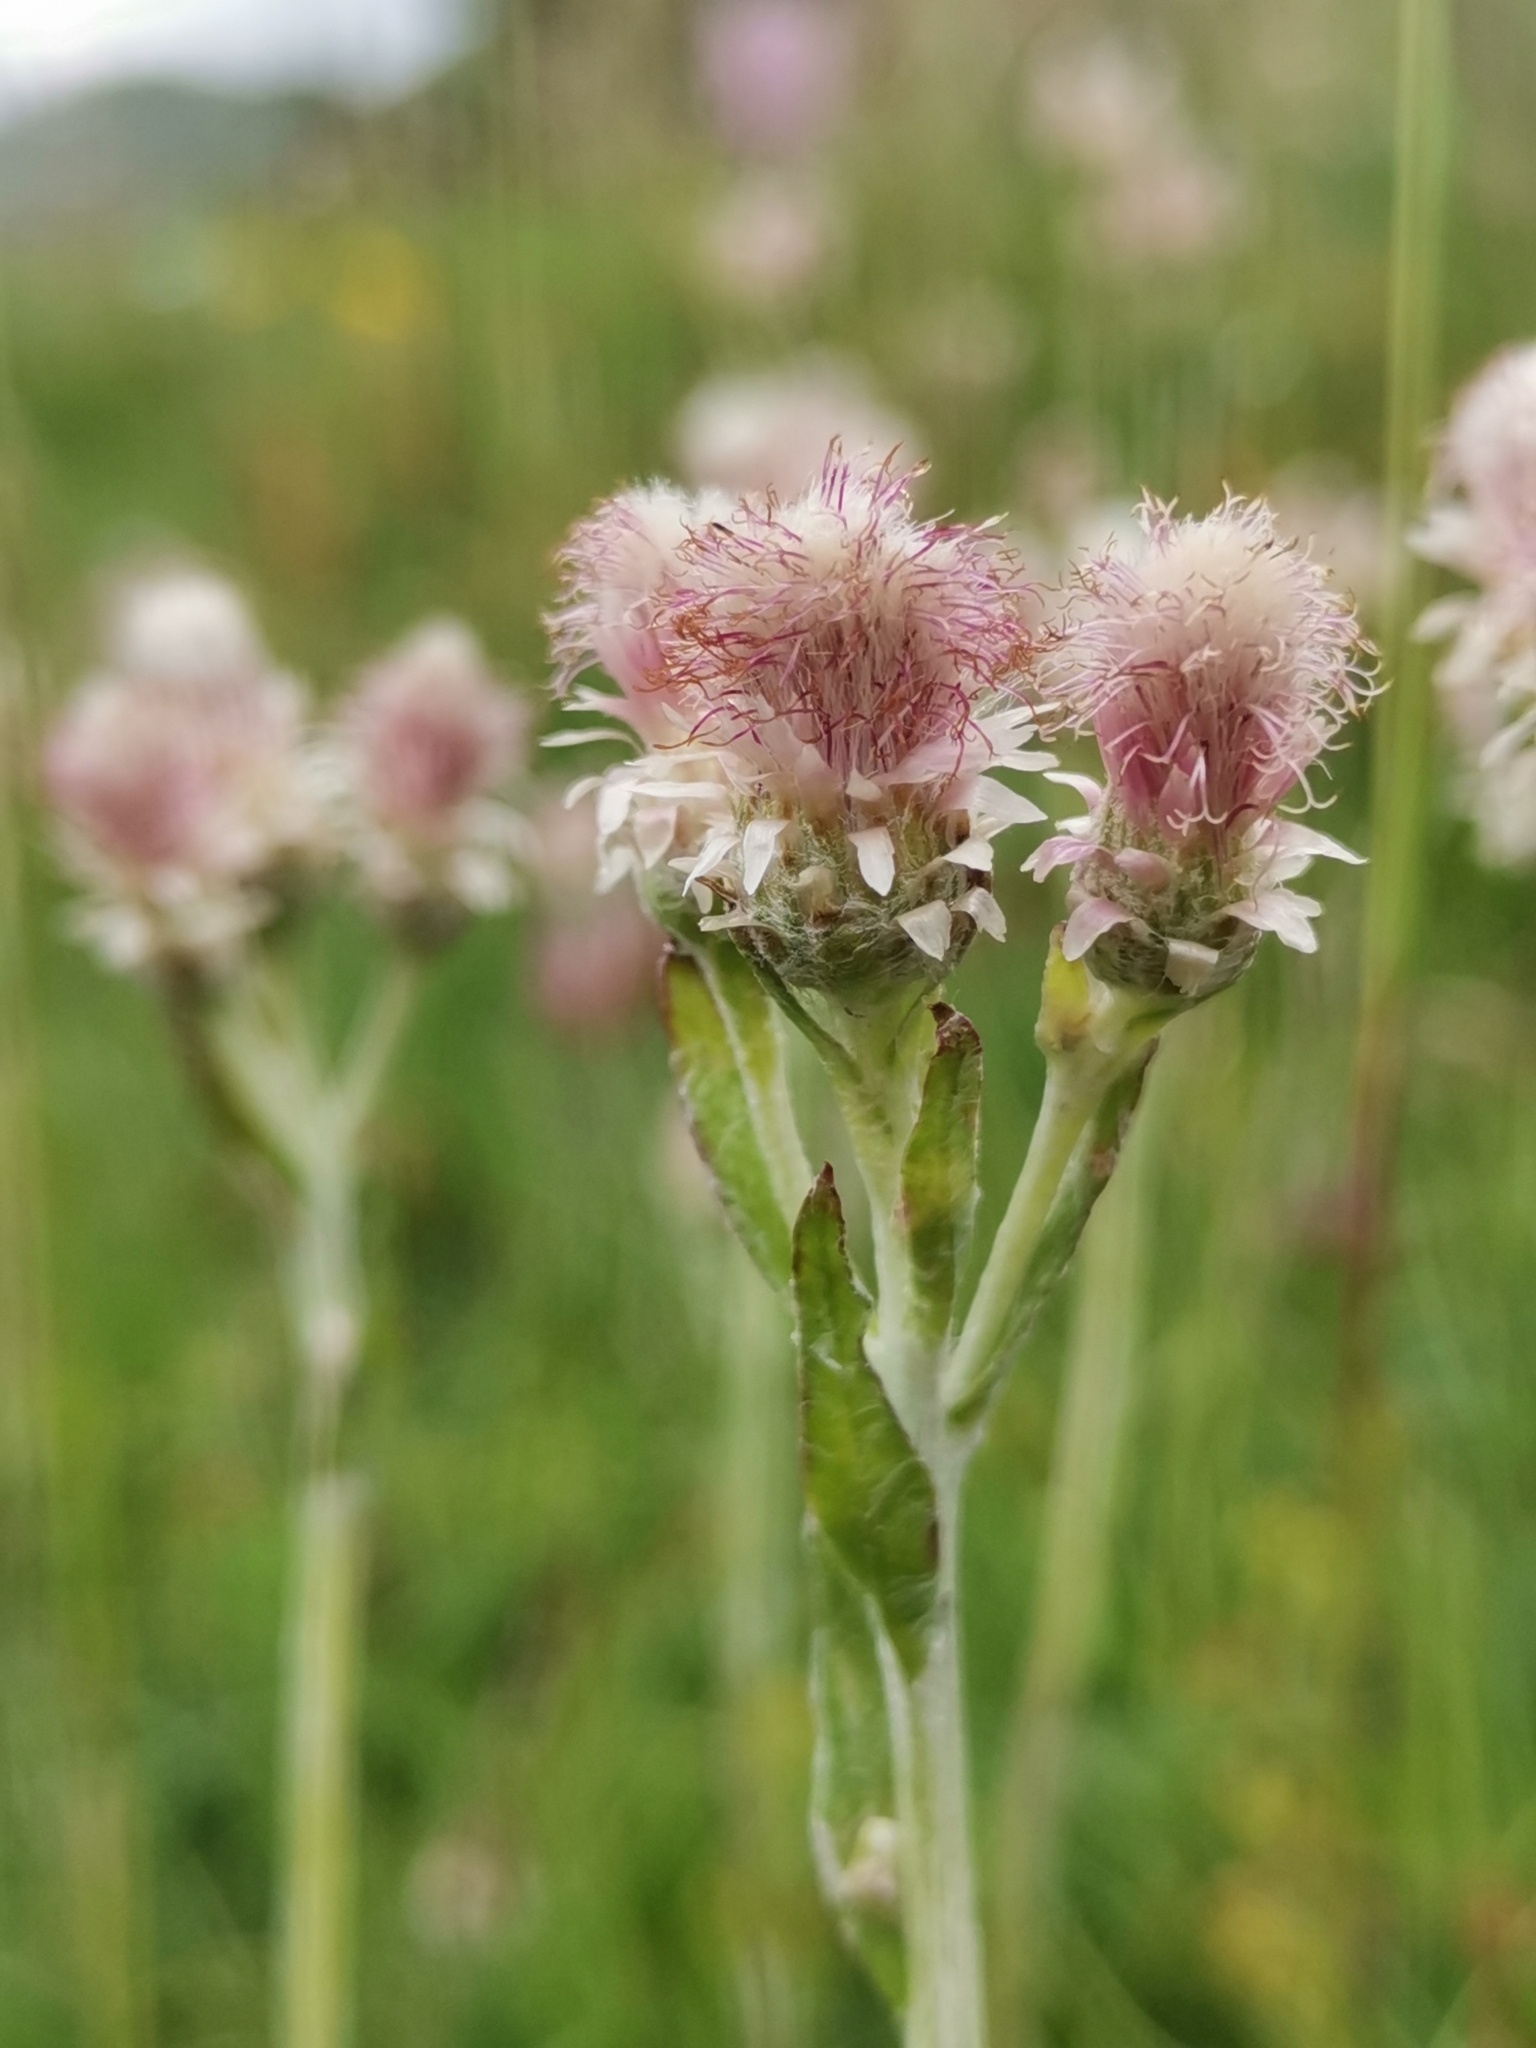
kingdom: Plantae
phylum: Tracheophyta
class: Magnoliopsida
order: Asterales
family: Asteraceae
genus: Antennaria
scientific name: Antennaria dioica
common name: Mountain everlasting
